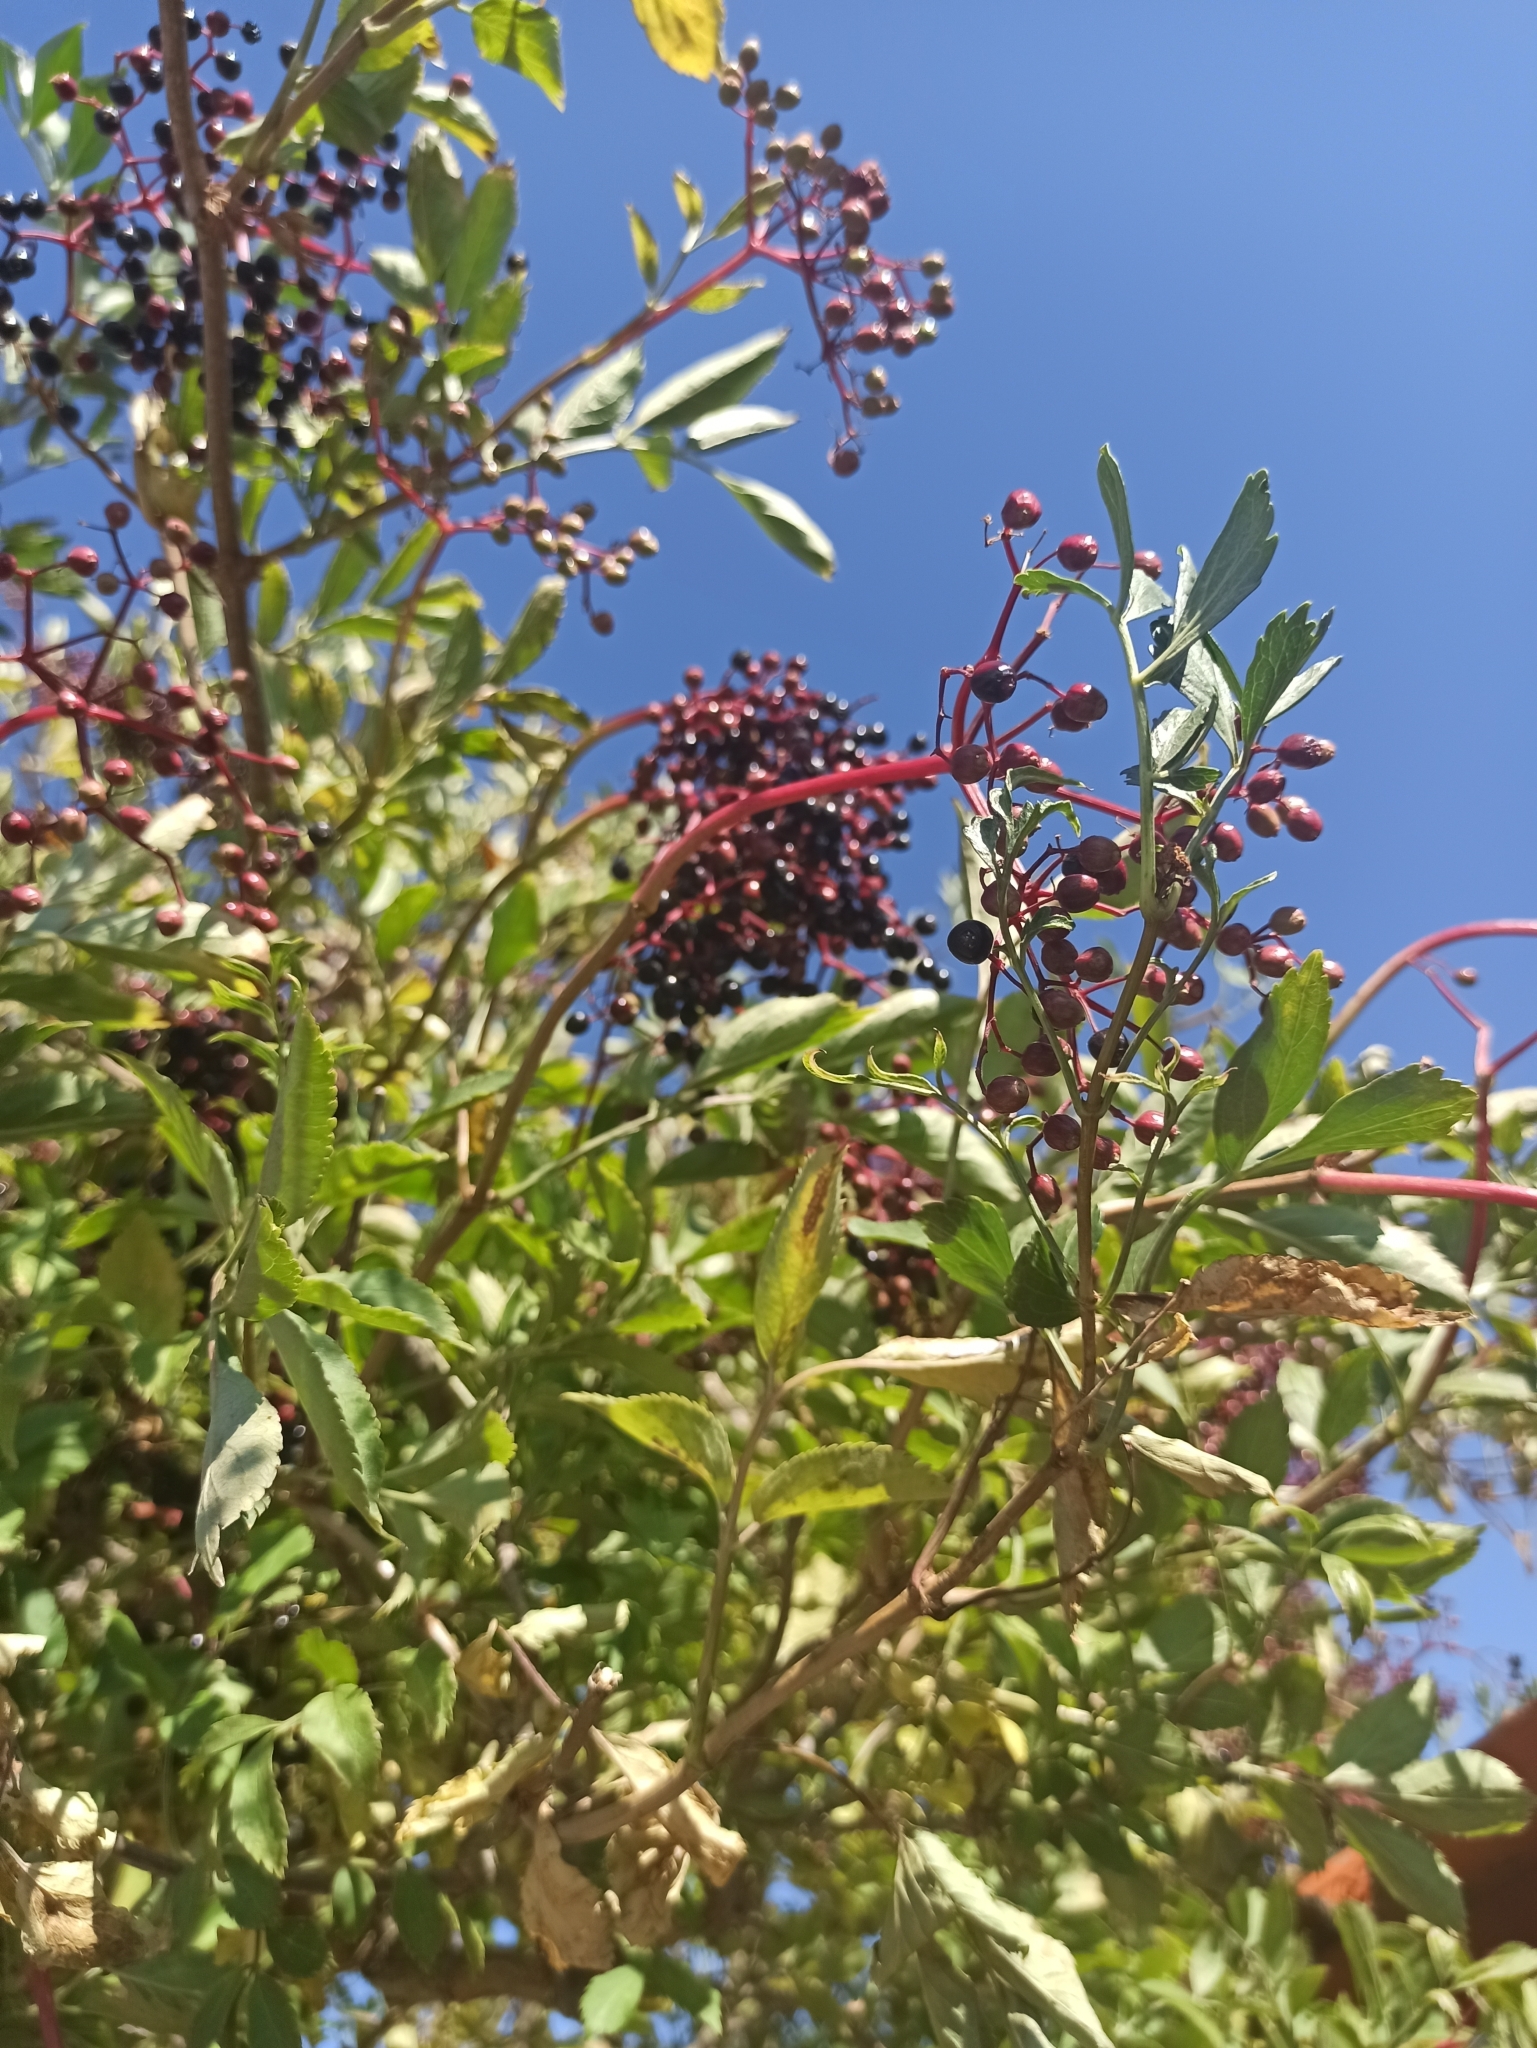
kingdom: Plantae
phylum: Tracheophyta
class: Magnoliopsida
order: Dipsacales
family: Viburnaceae
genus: Sambucus
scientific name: Sambucus nigra
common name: Elder
